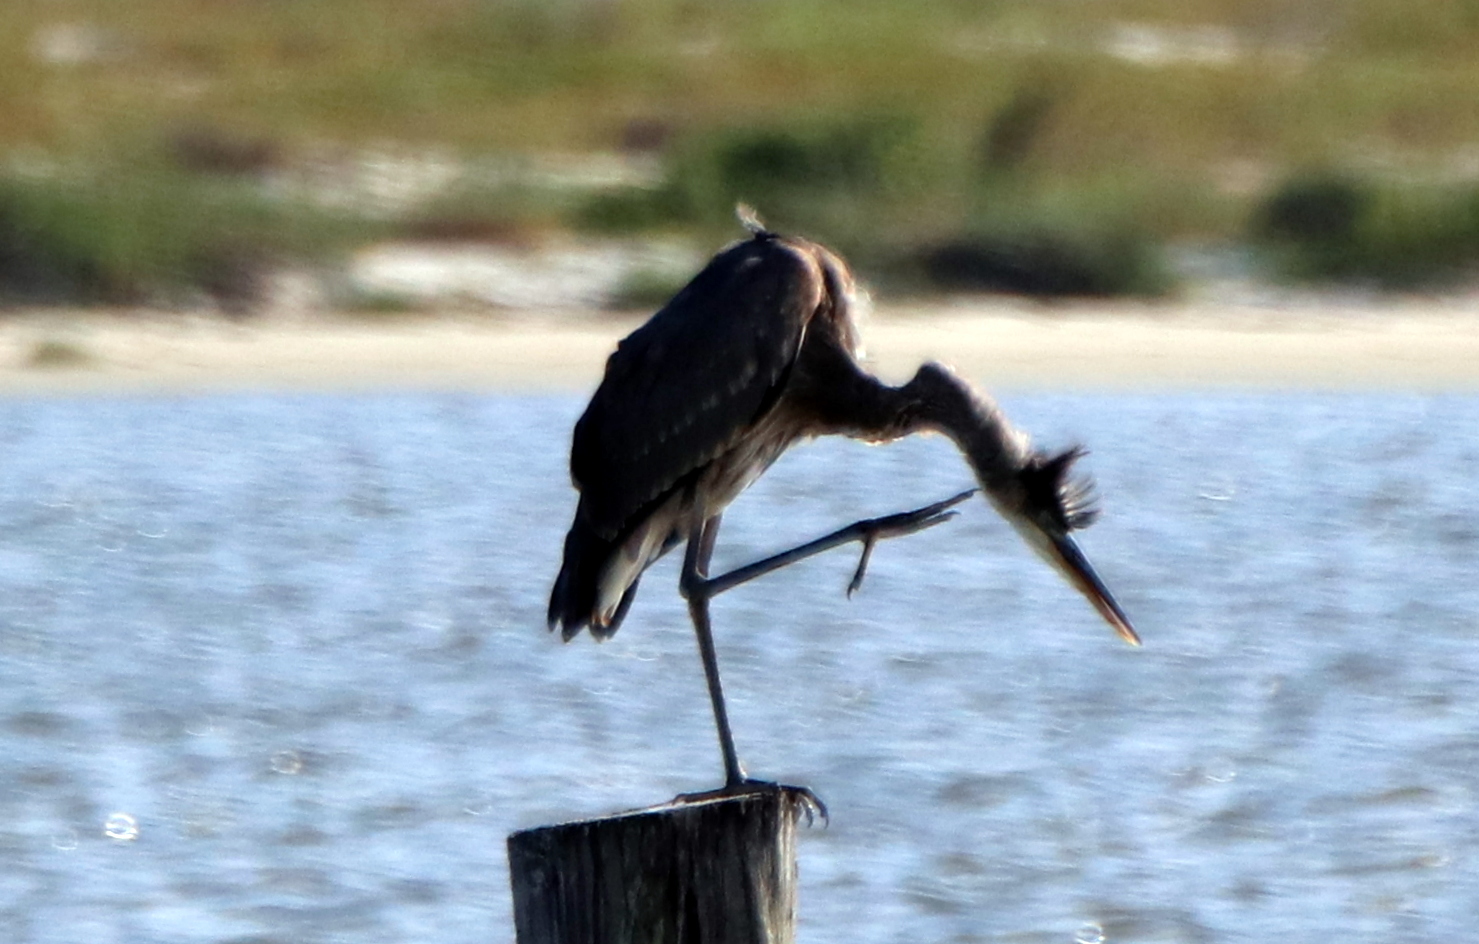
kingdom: Animalia
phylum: Chordata
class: Aves
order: Pelecaniformes
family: Ardeidae
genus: Ardea
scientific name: Ardea herodias
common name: Great blue heron
